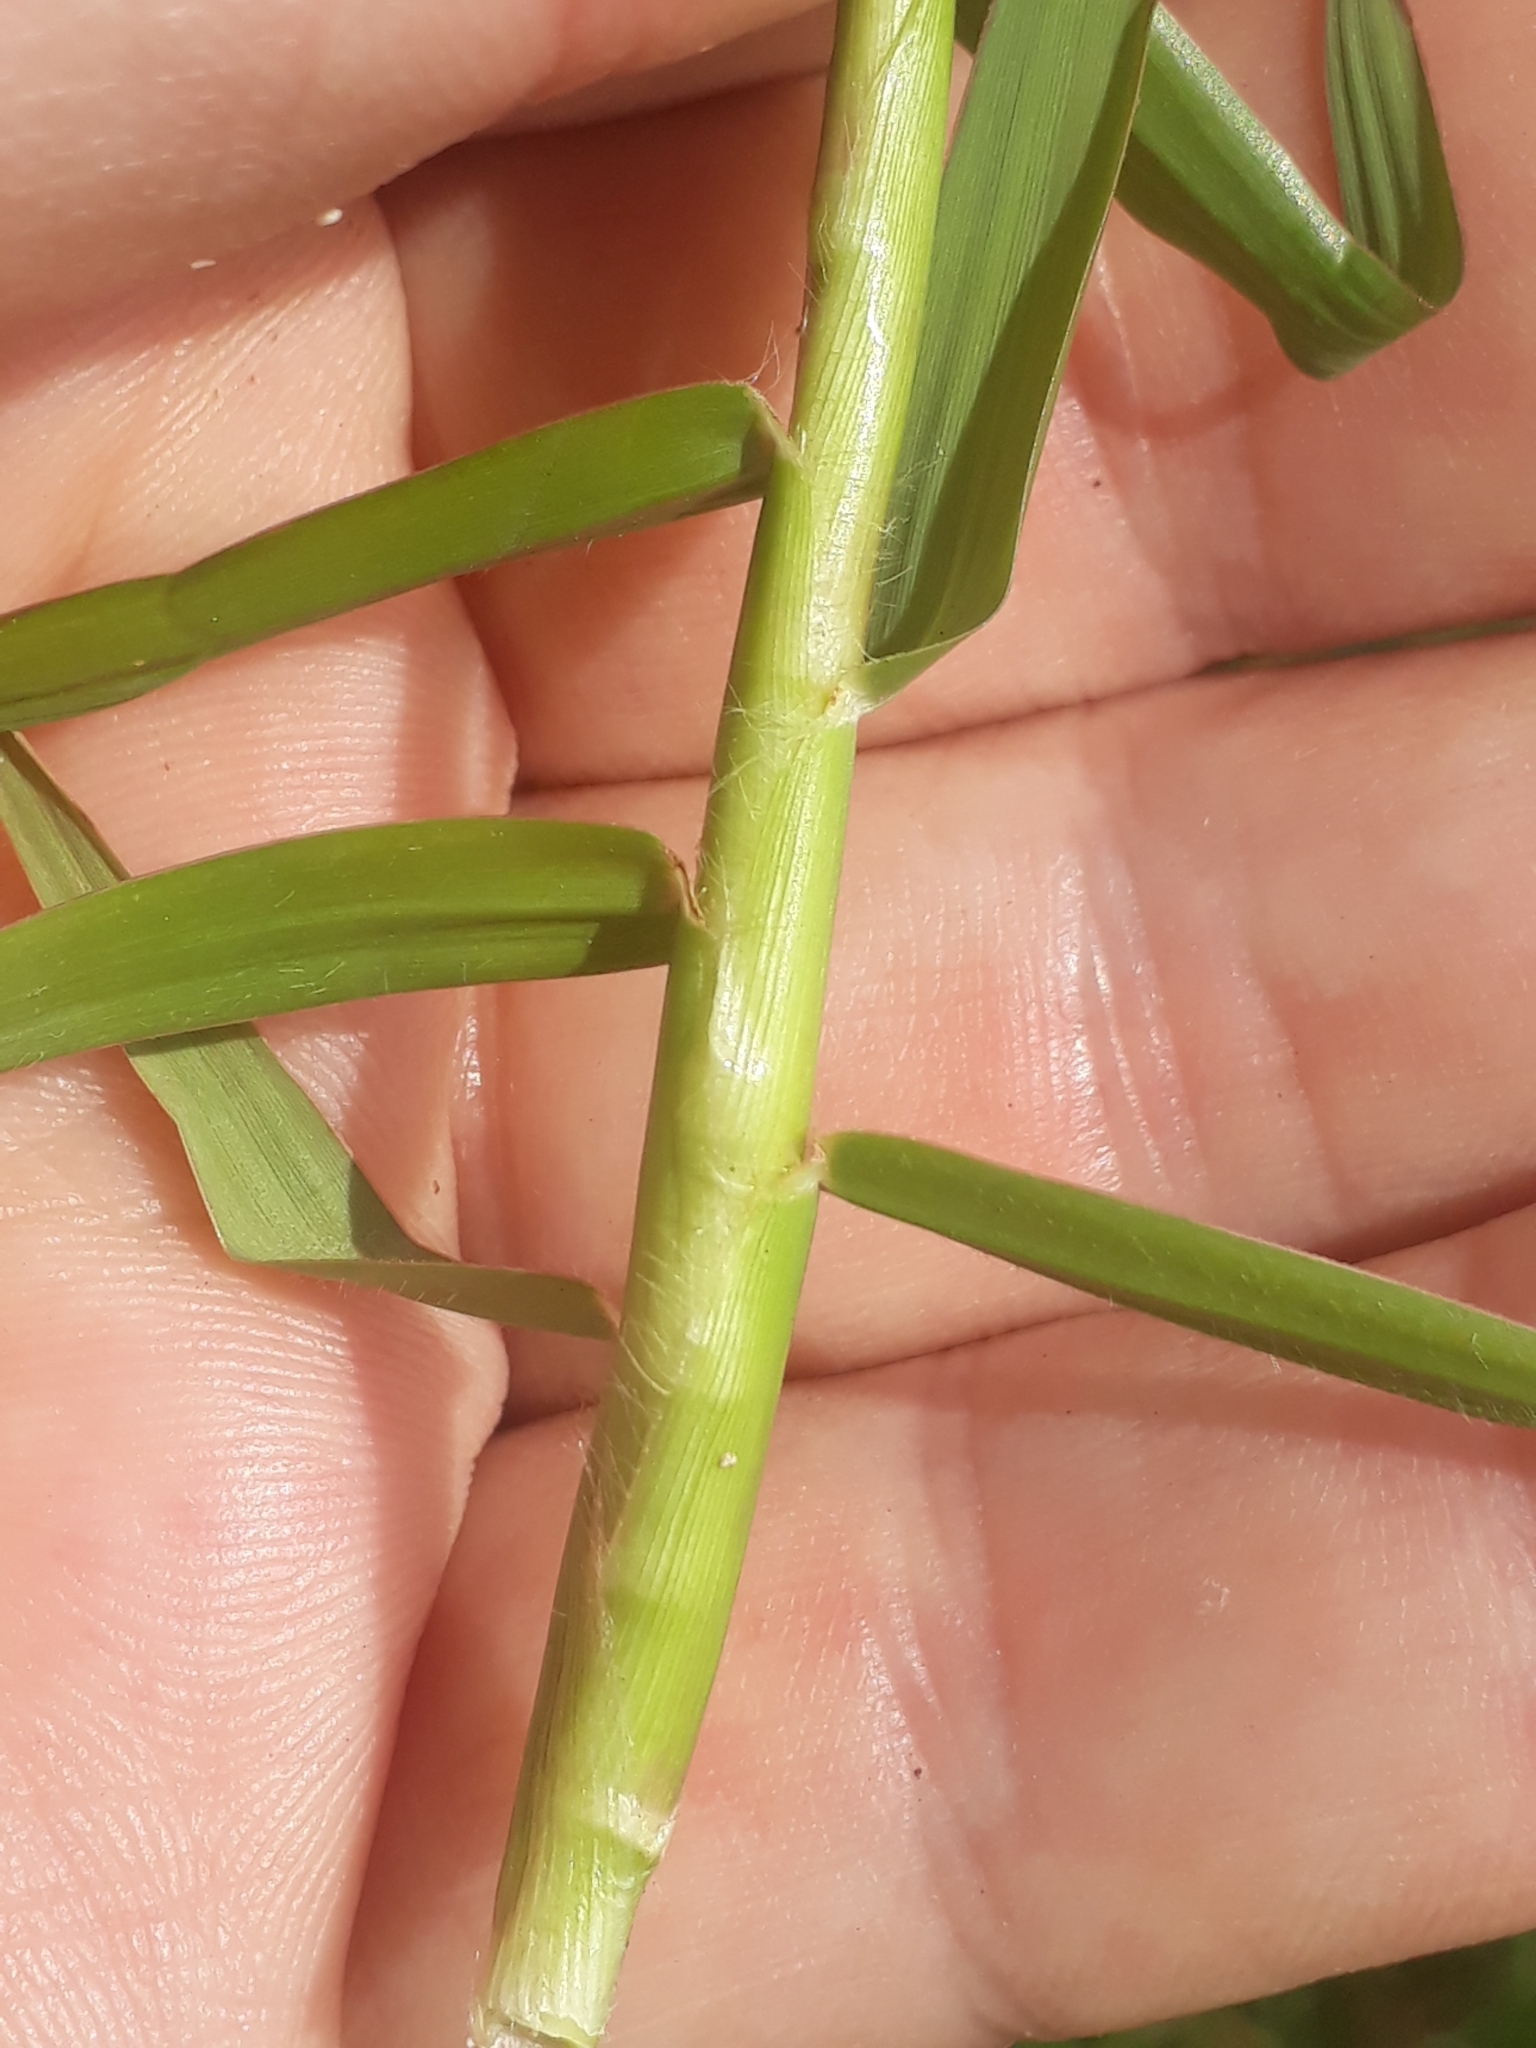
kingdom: Plantae
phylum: Tracheophyta
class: Liliopsida
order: Poales
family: Poaceae
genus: Paspalum
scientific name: Paspalum distichum
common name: Knotgrass
